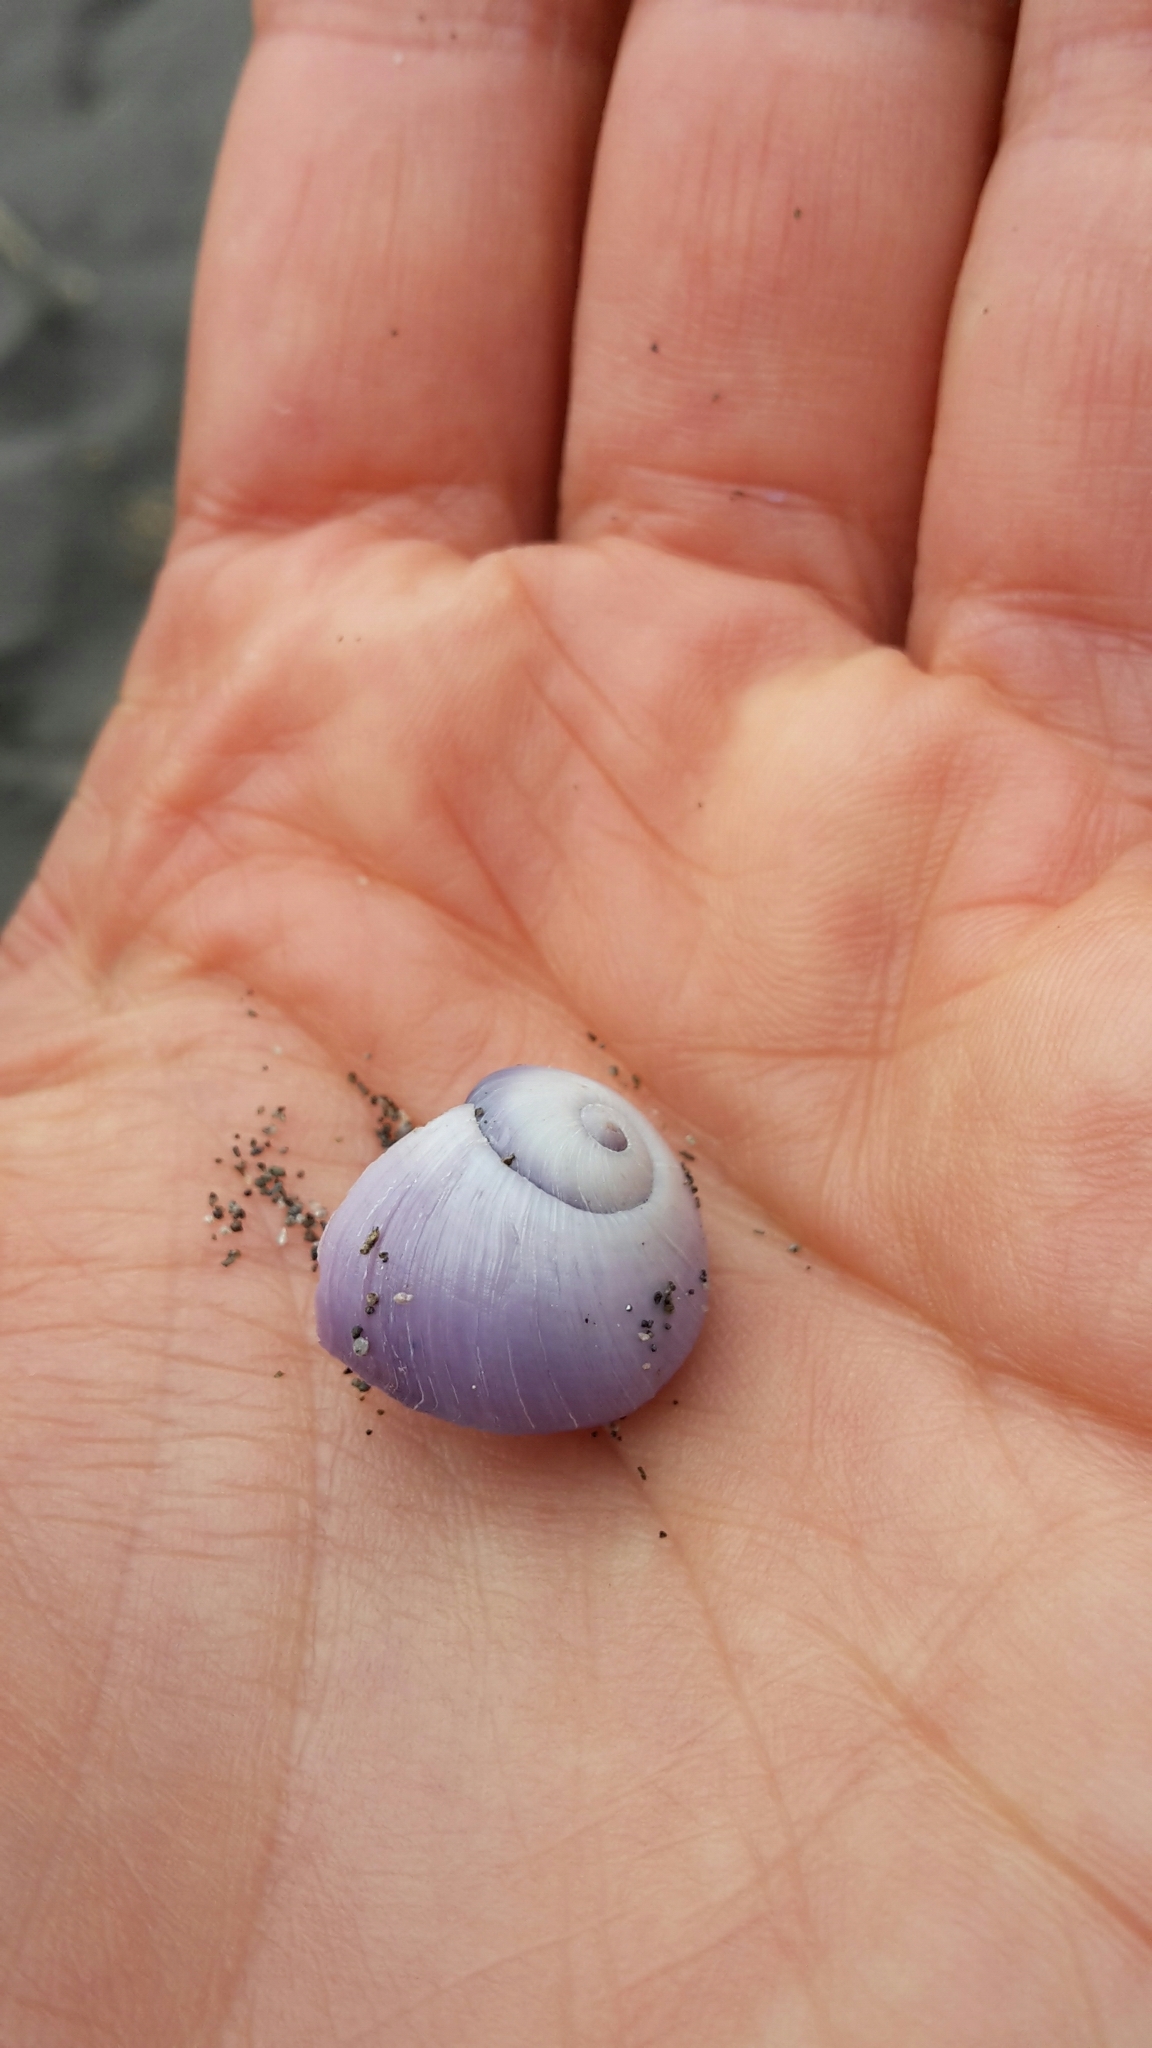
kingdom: Animalia
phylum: Mollusca
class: Gastropoda
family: Epitoniidae
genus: Janthina
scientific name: Janthina janthina
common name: Common janthina
